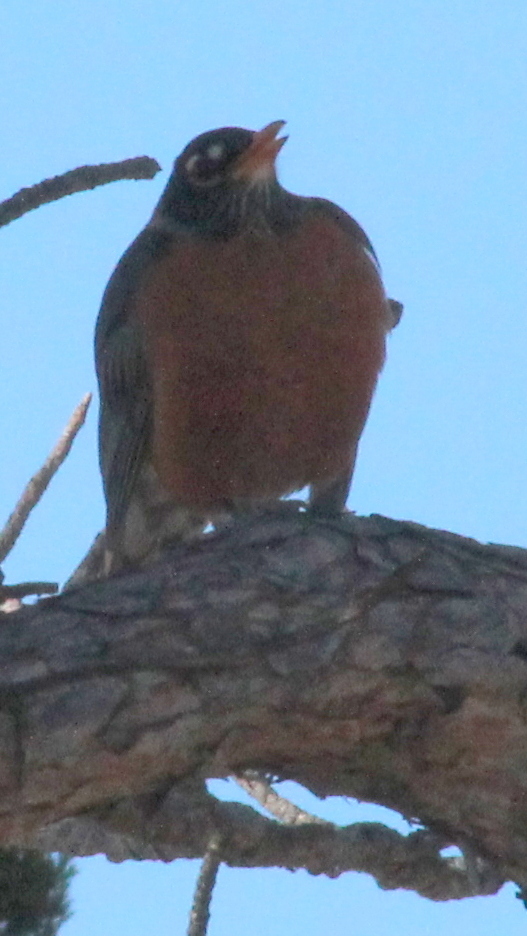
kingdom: Animalia
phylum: Chordata
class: Aves
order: Passeriformes
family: Turdidae
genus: Turdus
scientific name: Turdus migratorius
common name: American robin
